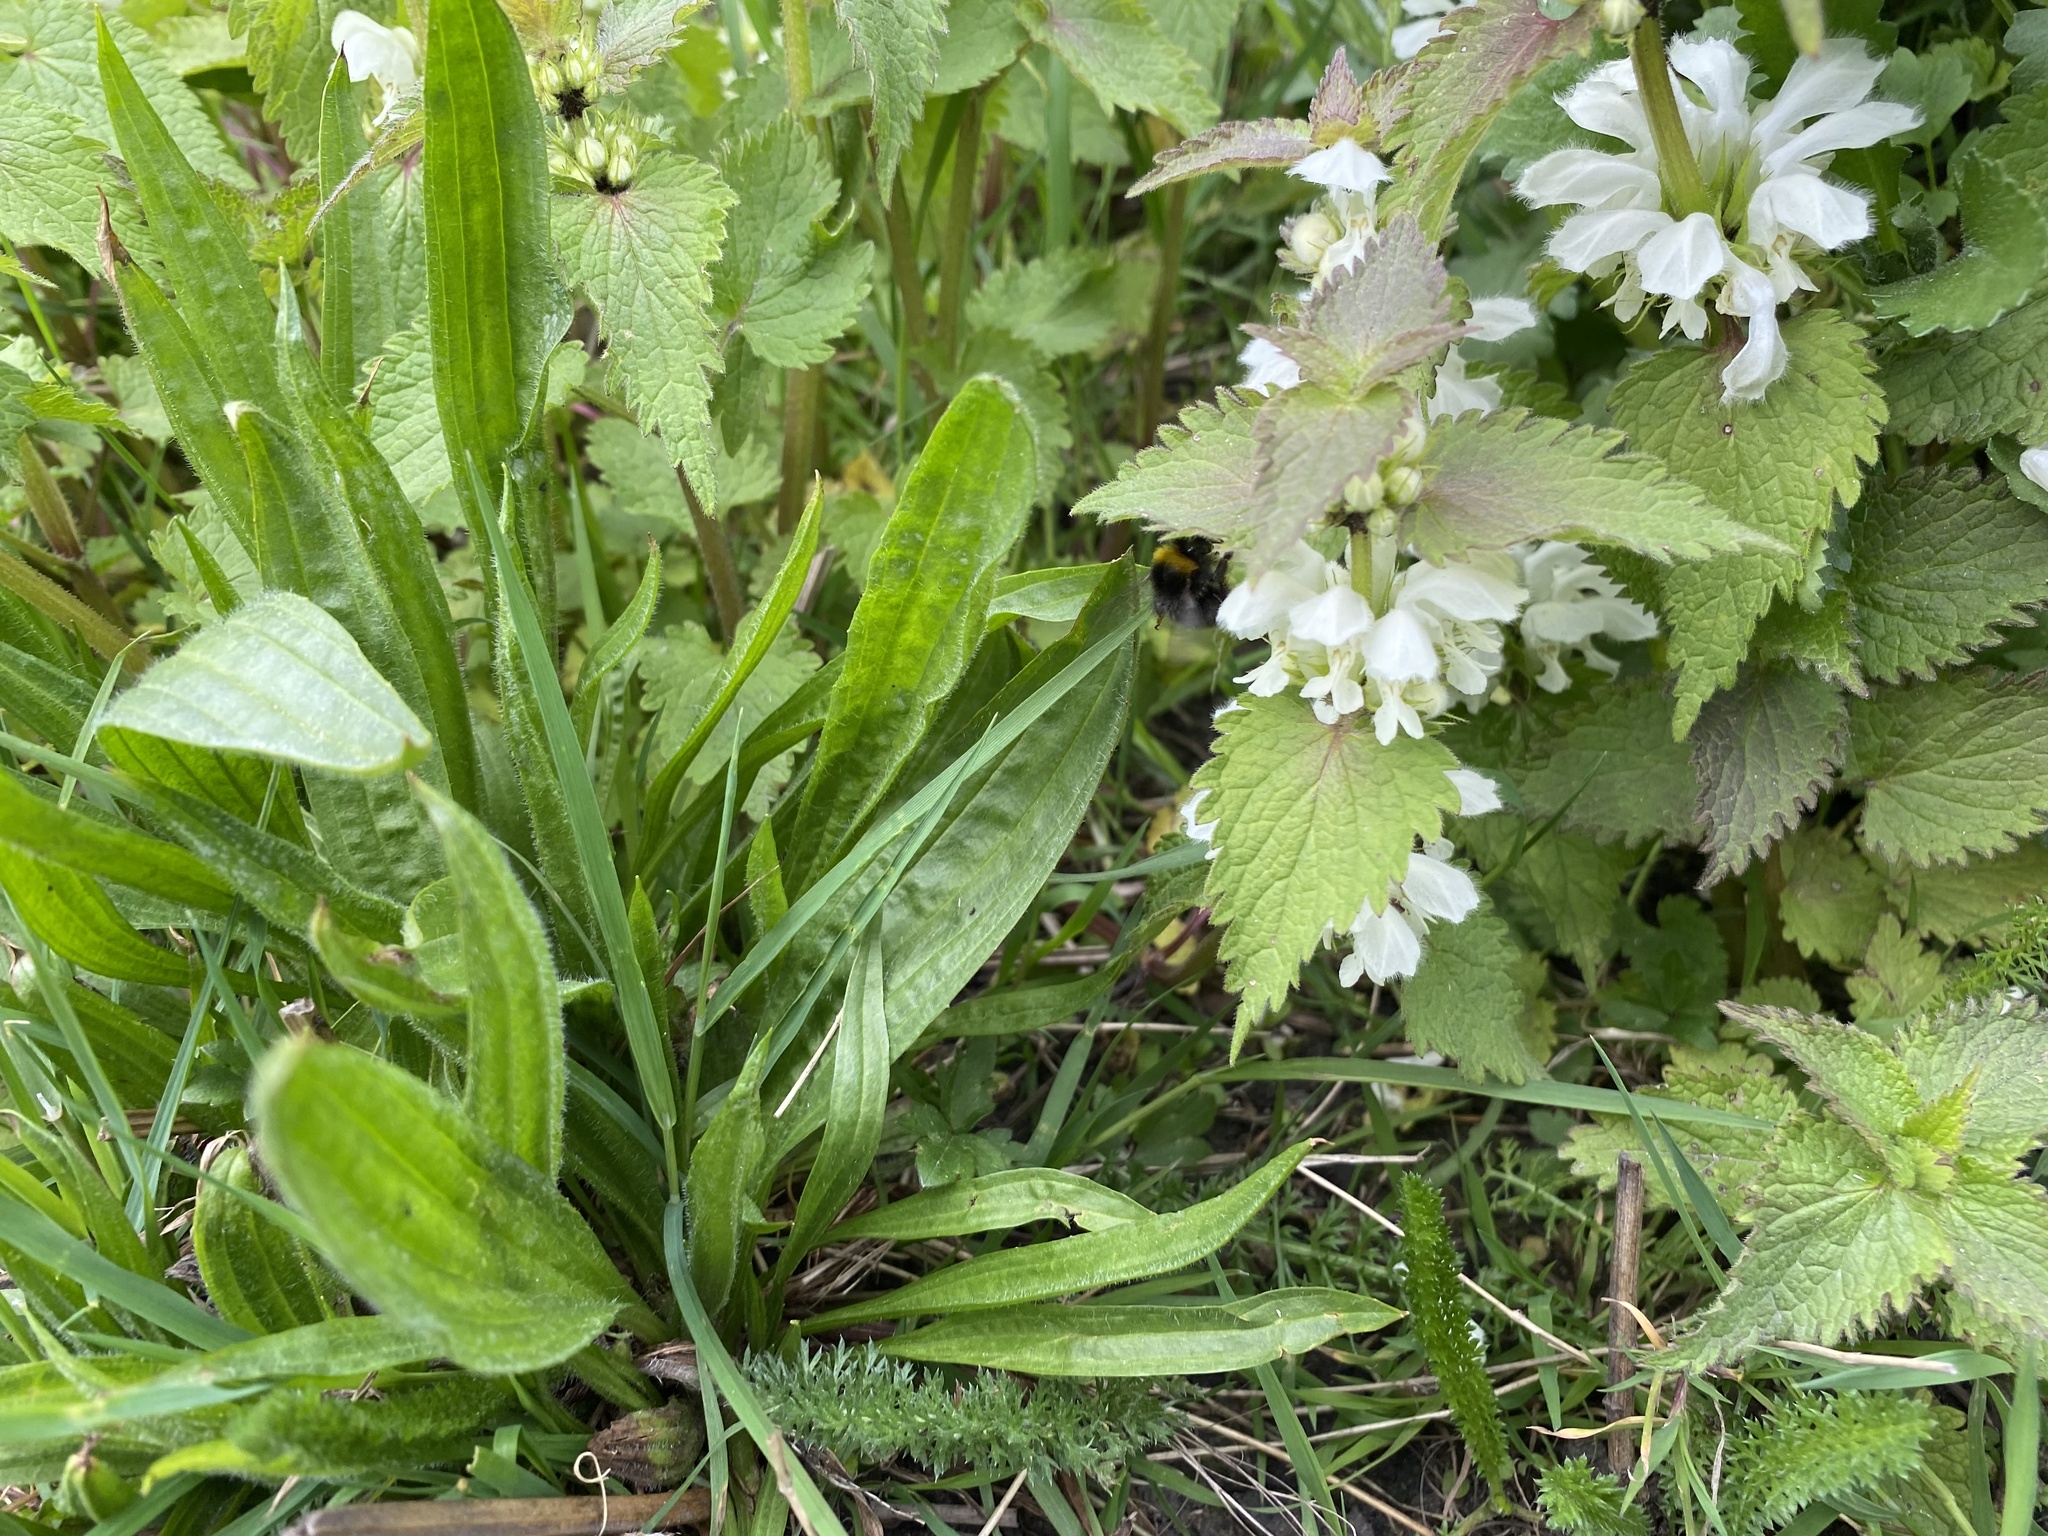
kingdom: Plantae
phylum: Tracheophyta
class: Magnoliopsida
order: Lamiales
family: Lamiaceae
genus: Lamium
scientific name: Lamium album
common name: White dead-nettle
